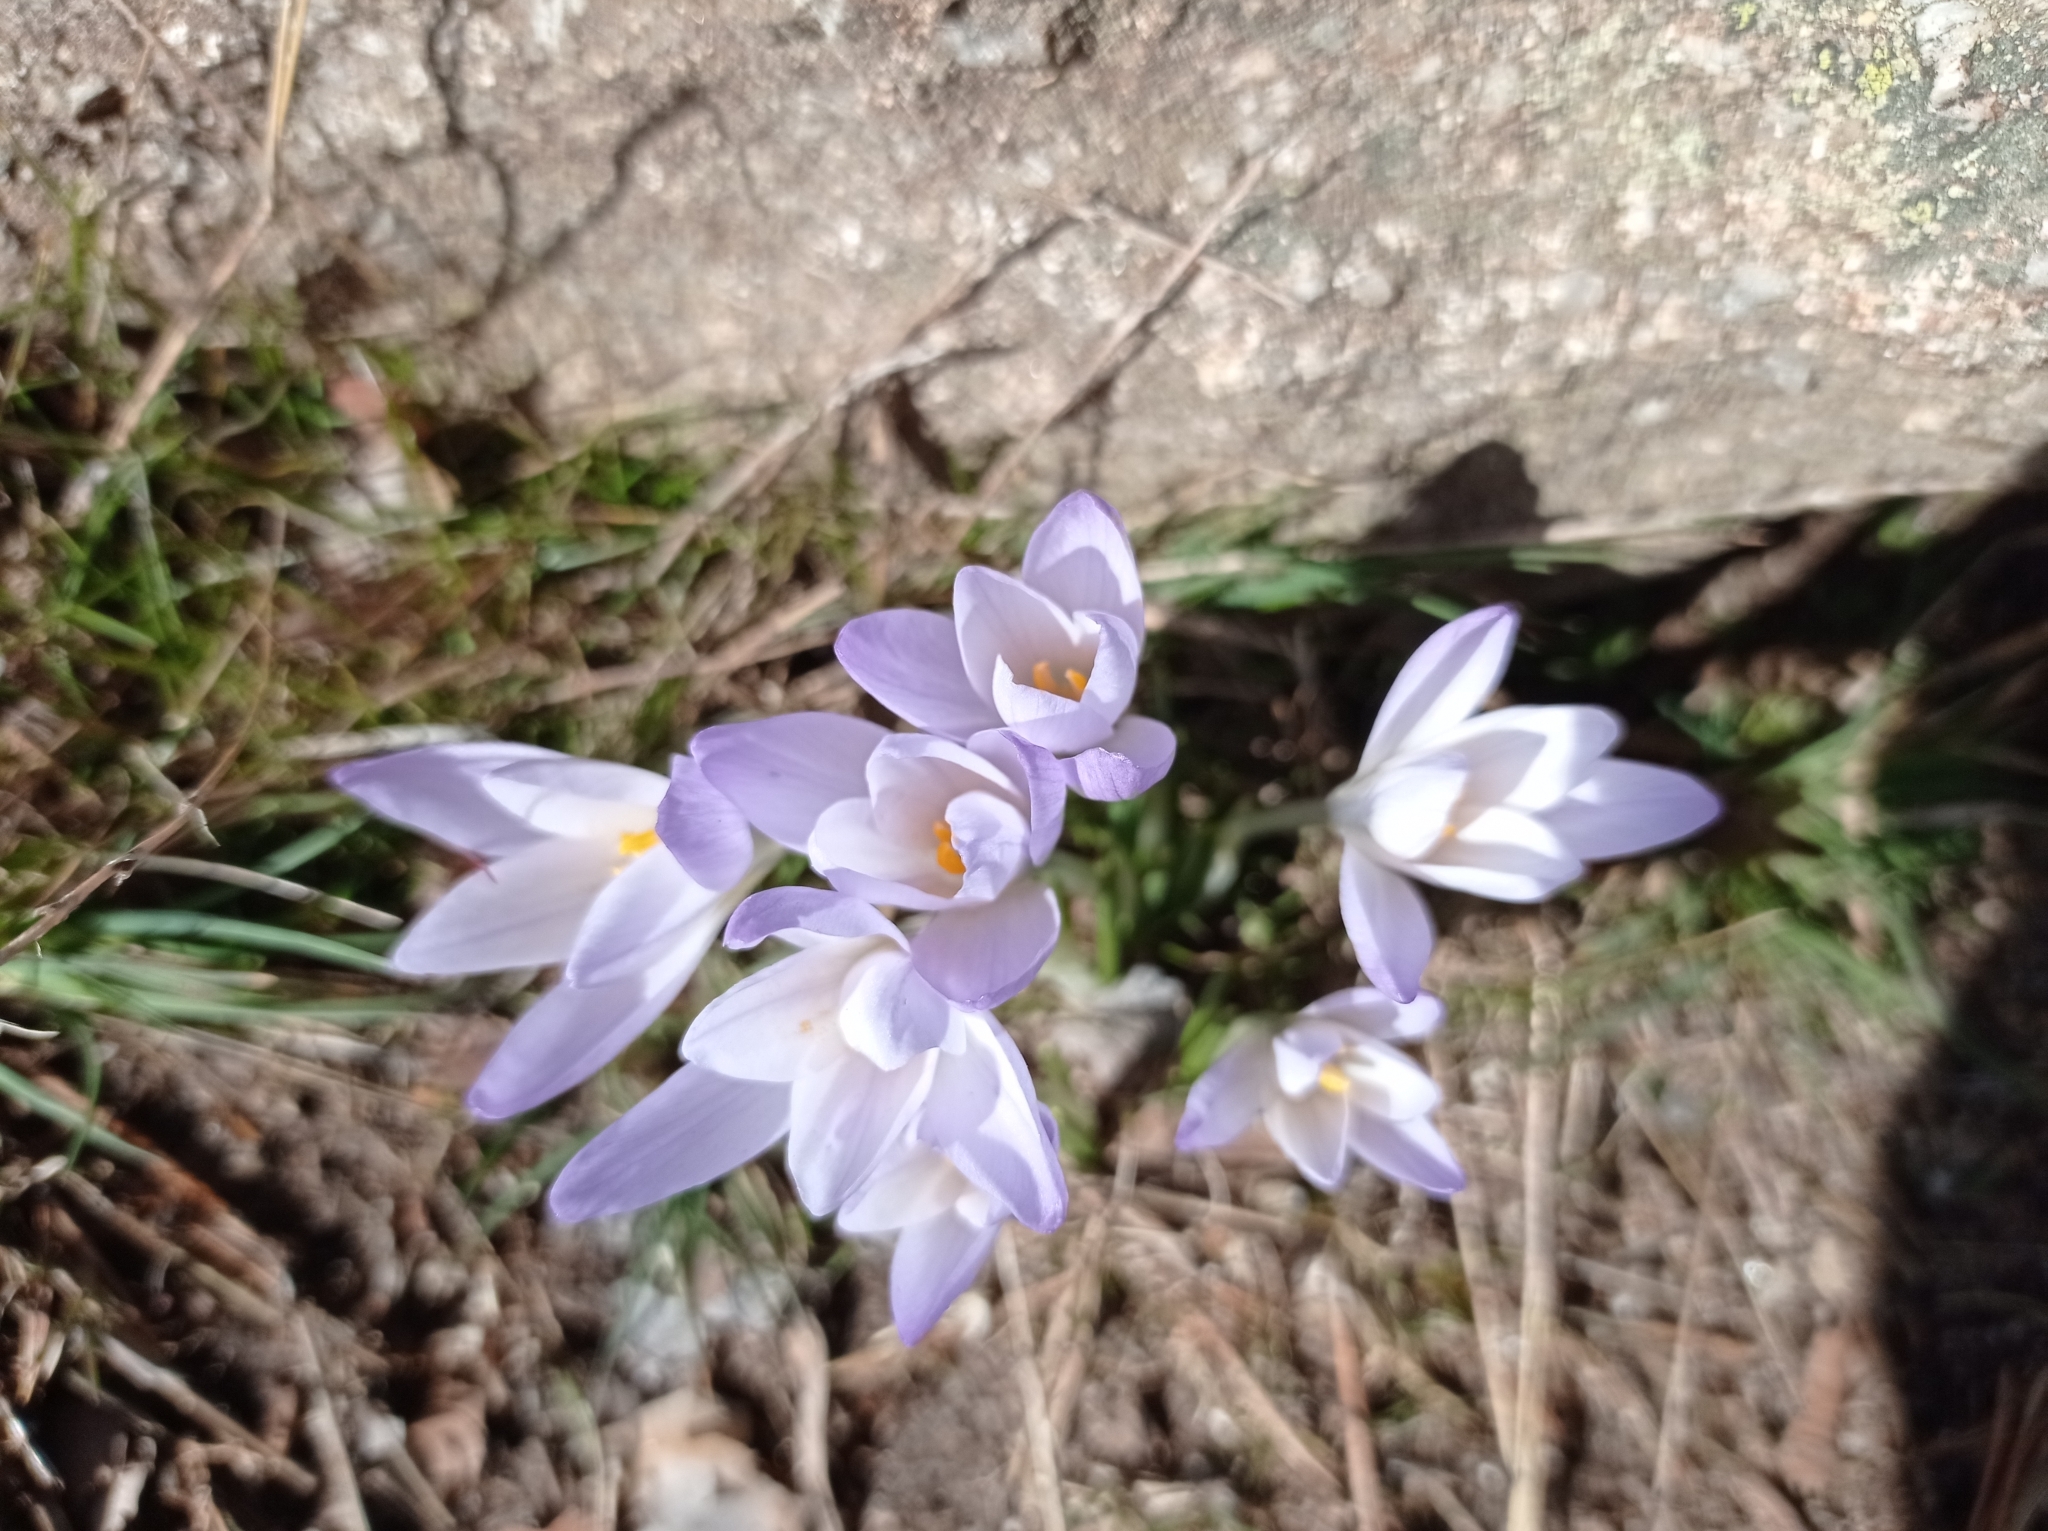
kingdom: Plantae
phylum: Tracheophyta
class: Liliopsida
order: Asparagales
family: Iridaceae
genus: Crocus
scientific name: Crocus carpetanus
